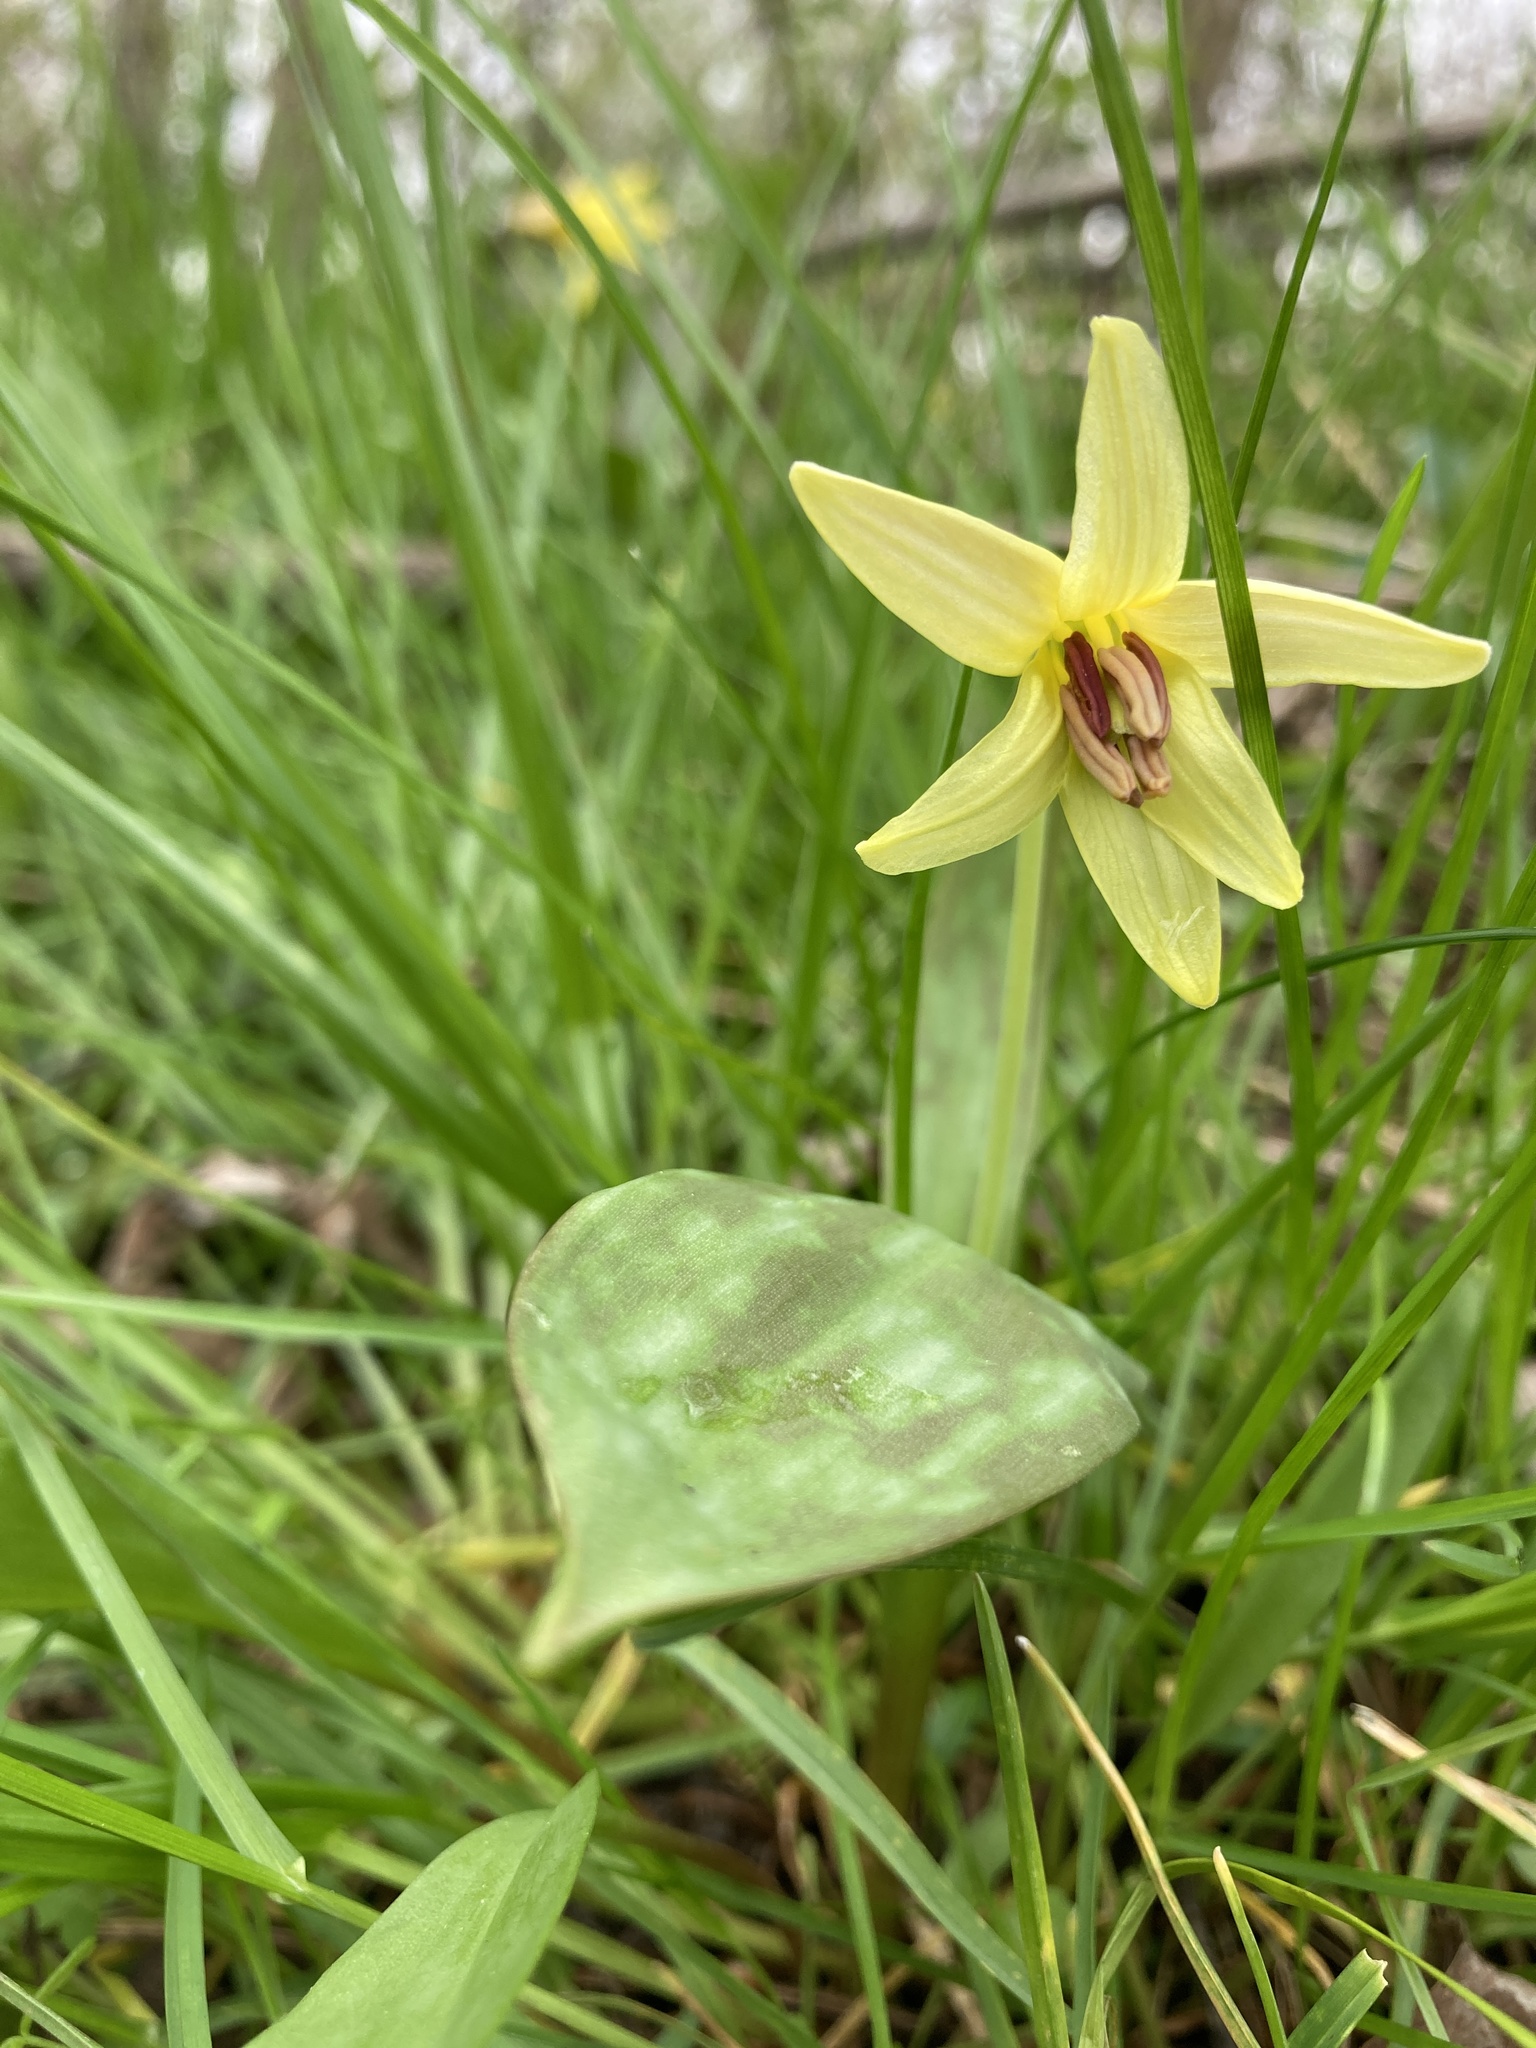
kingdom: Plantae
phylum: Tracheophyta
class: Liliopsida
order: Liliales
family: Liliaceae
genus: Erythronium
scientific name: Erythronium americanum
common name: Yellow adder's-tongue
